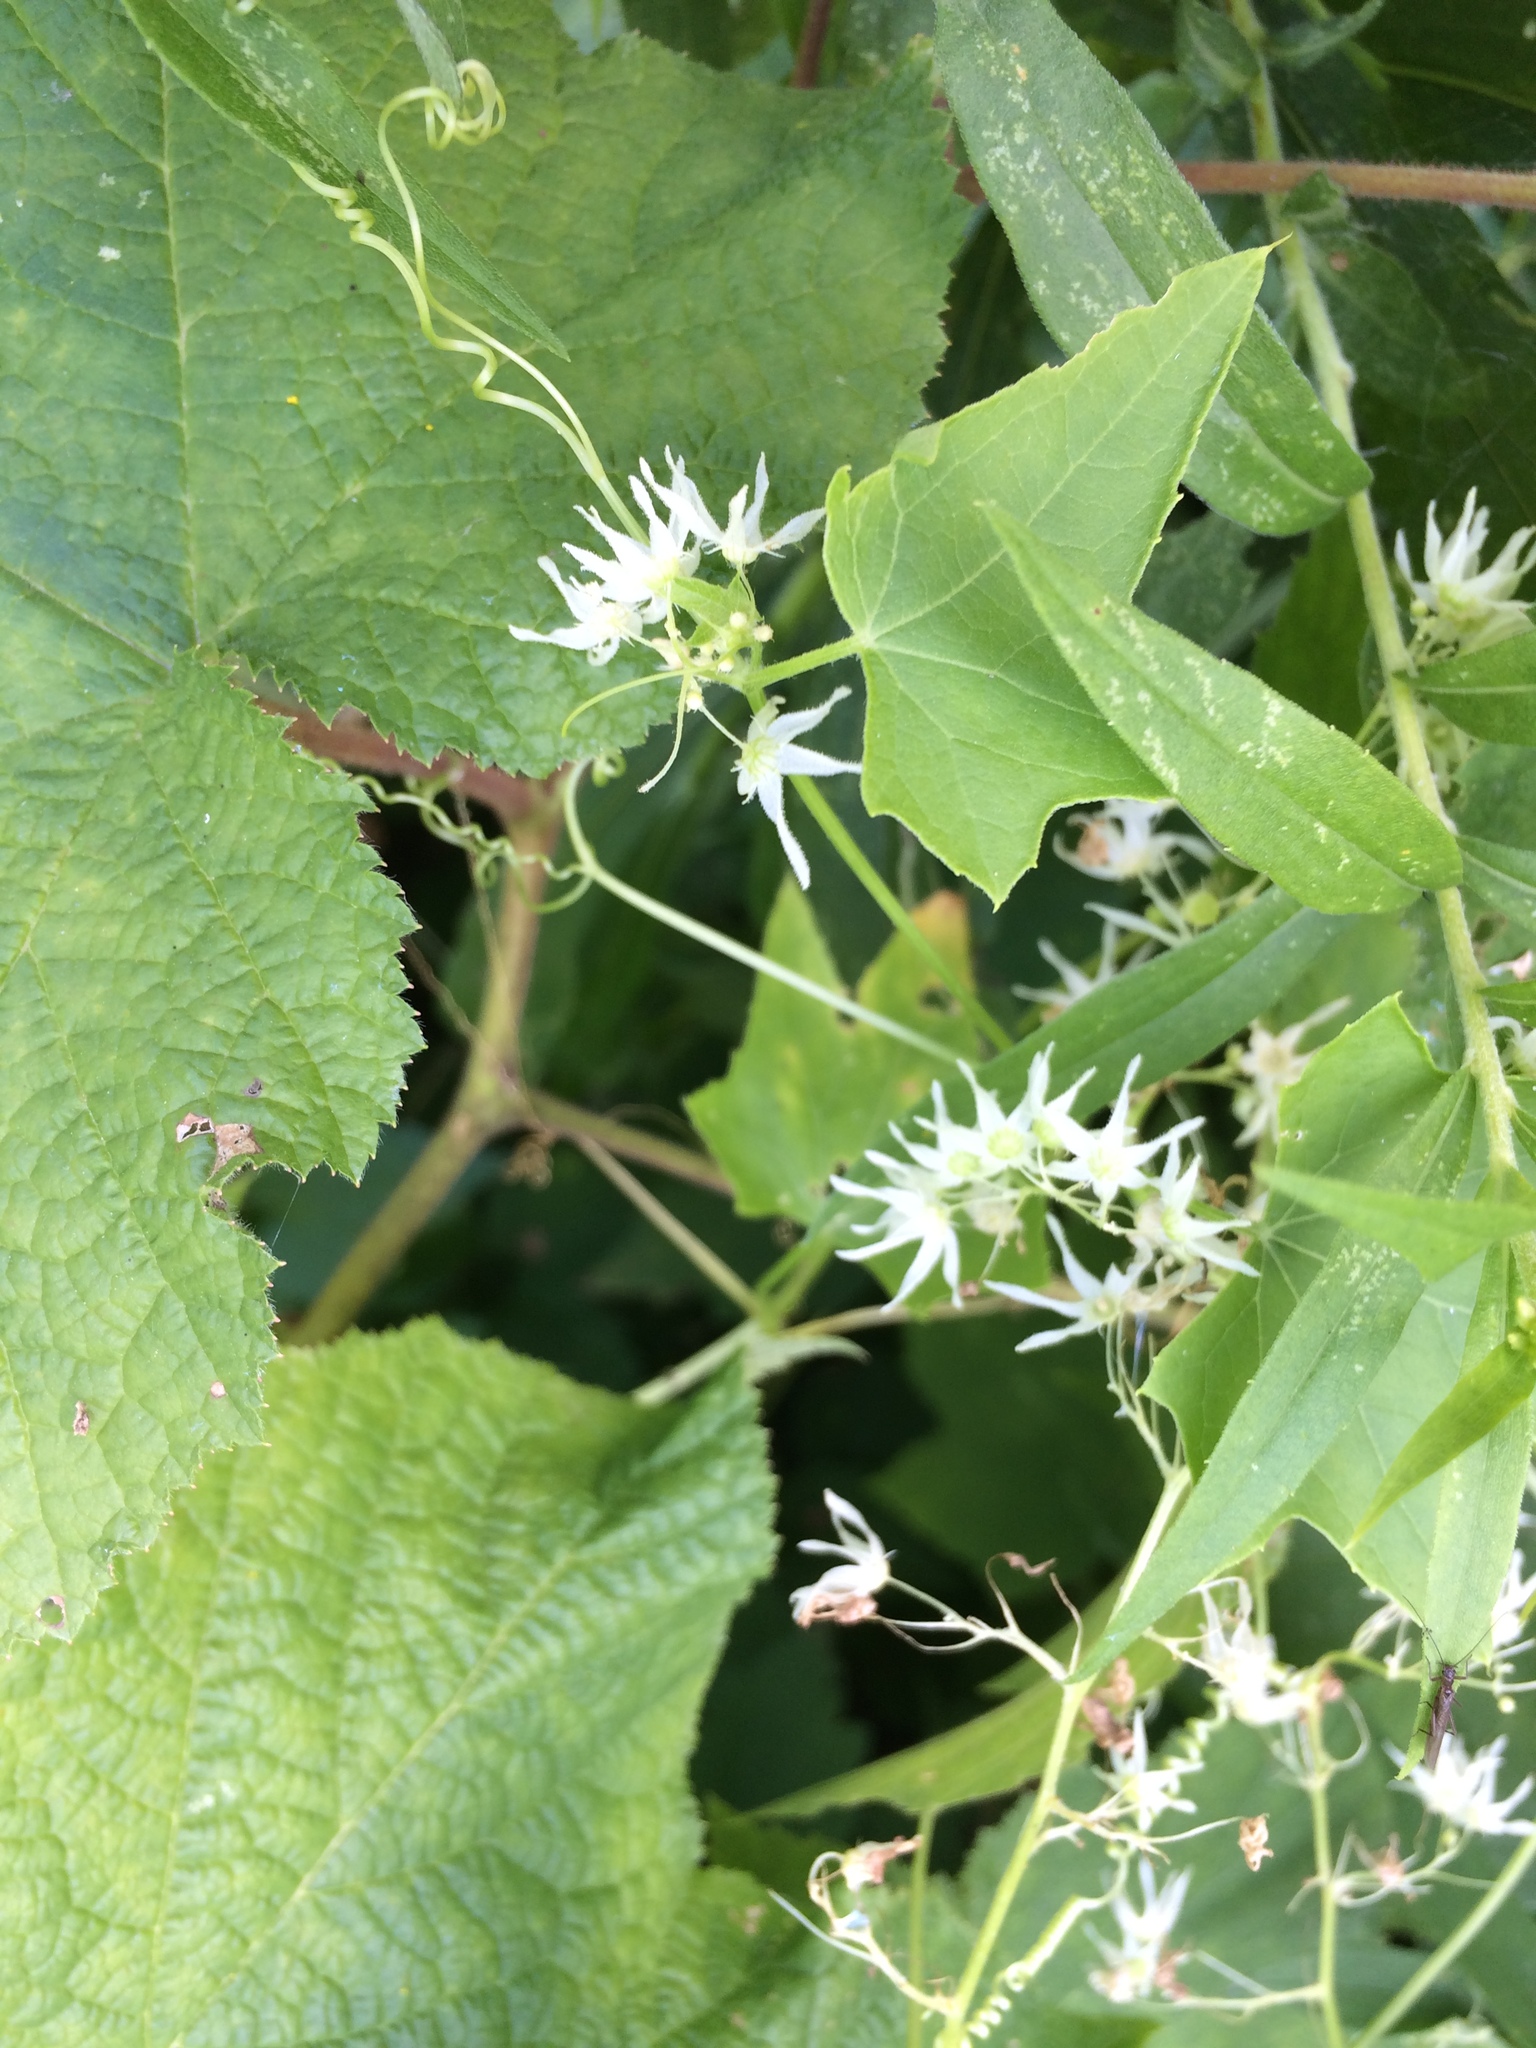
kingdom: Plantae
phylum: Tracheophyta
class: Magnoliopsida
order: Cucurbitales
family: Cucurbitaceae
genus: Echinocystis
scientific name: Echinocystis lobata
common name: Wild cucumber
